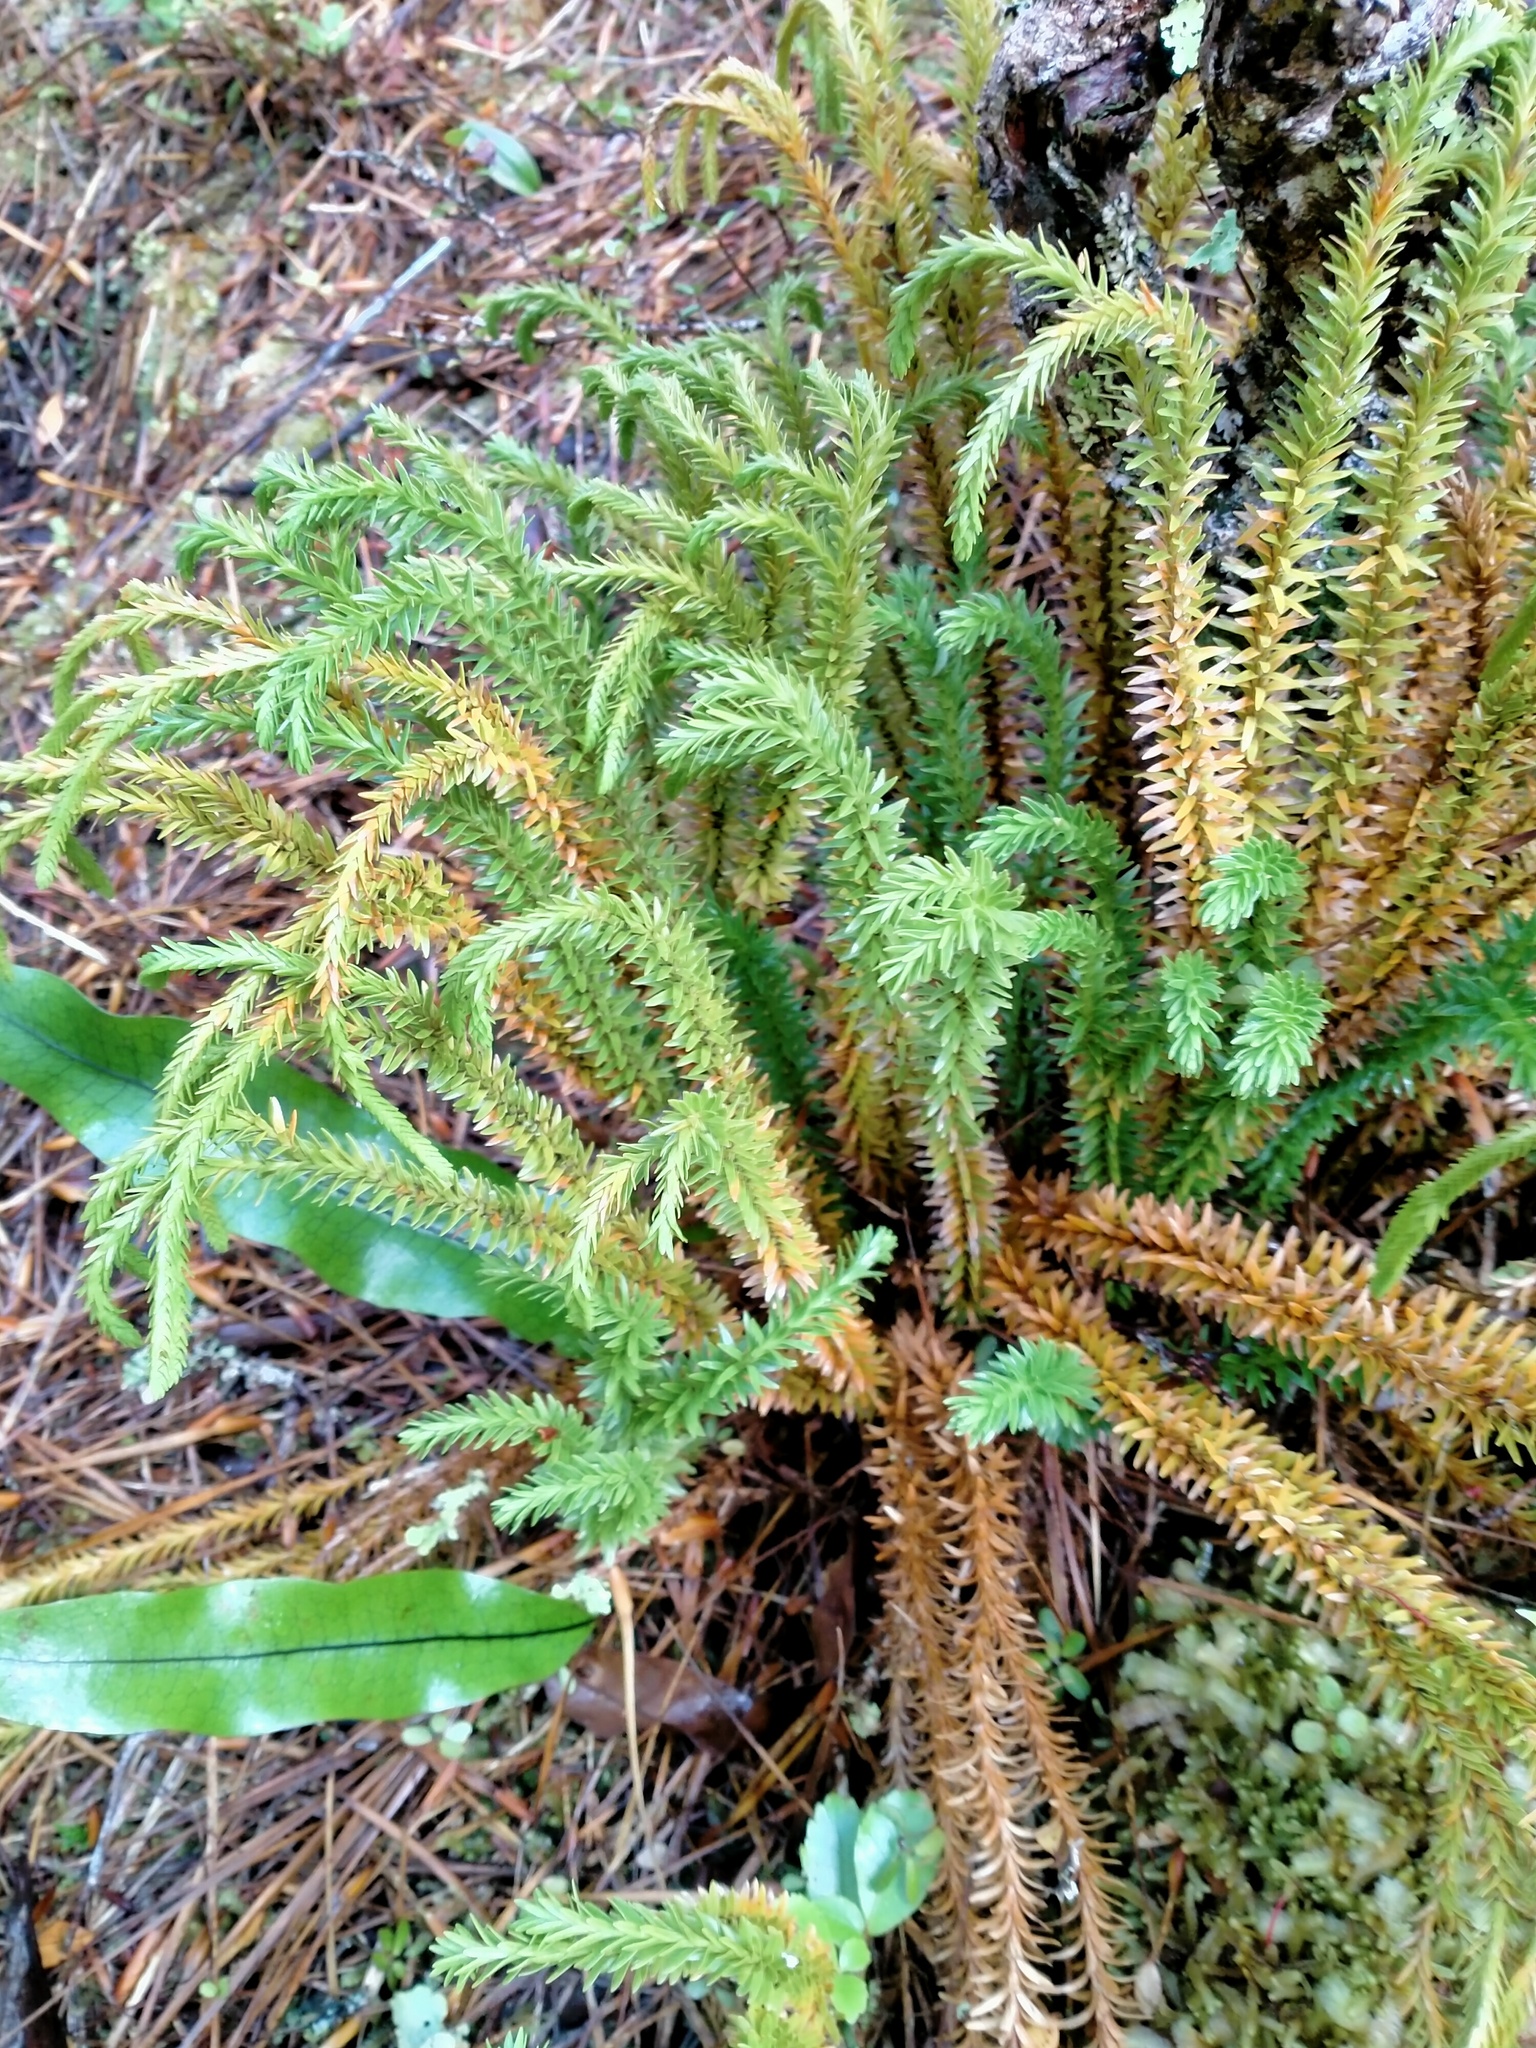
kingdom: Plantae
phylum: Tracheophyta
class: Lycopodiopsida
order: Lycopodiales
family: Lycopodiaceae
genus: Phlegmariurus
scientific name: Phlegmariurus varius
